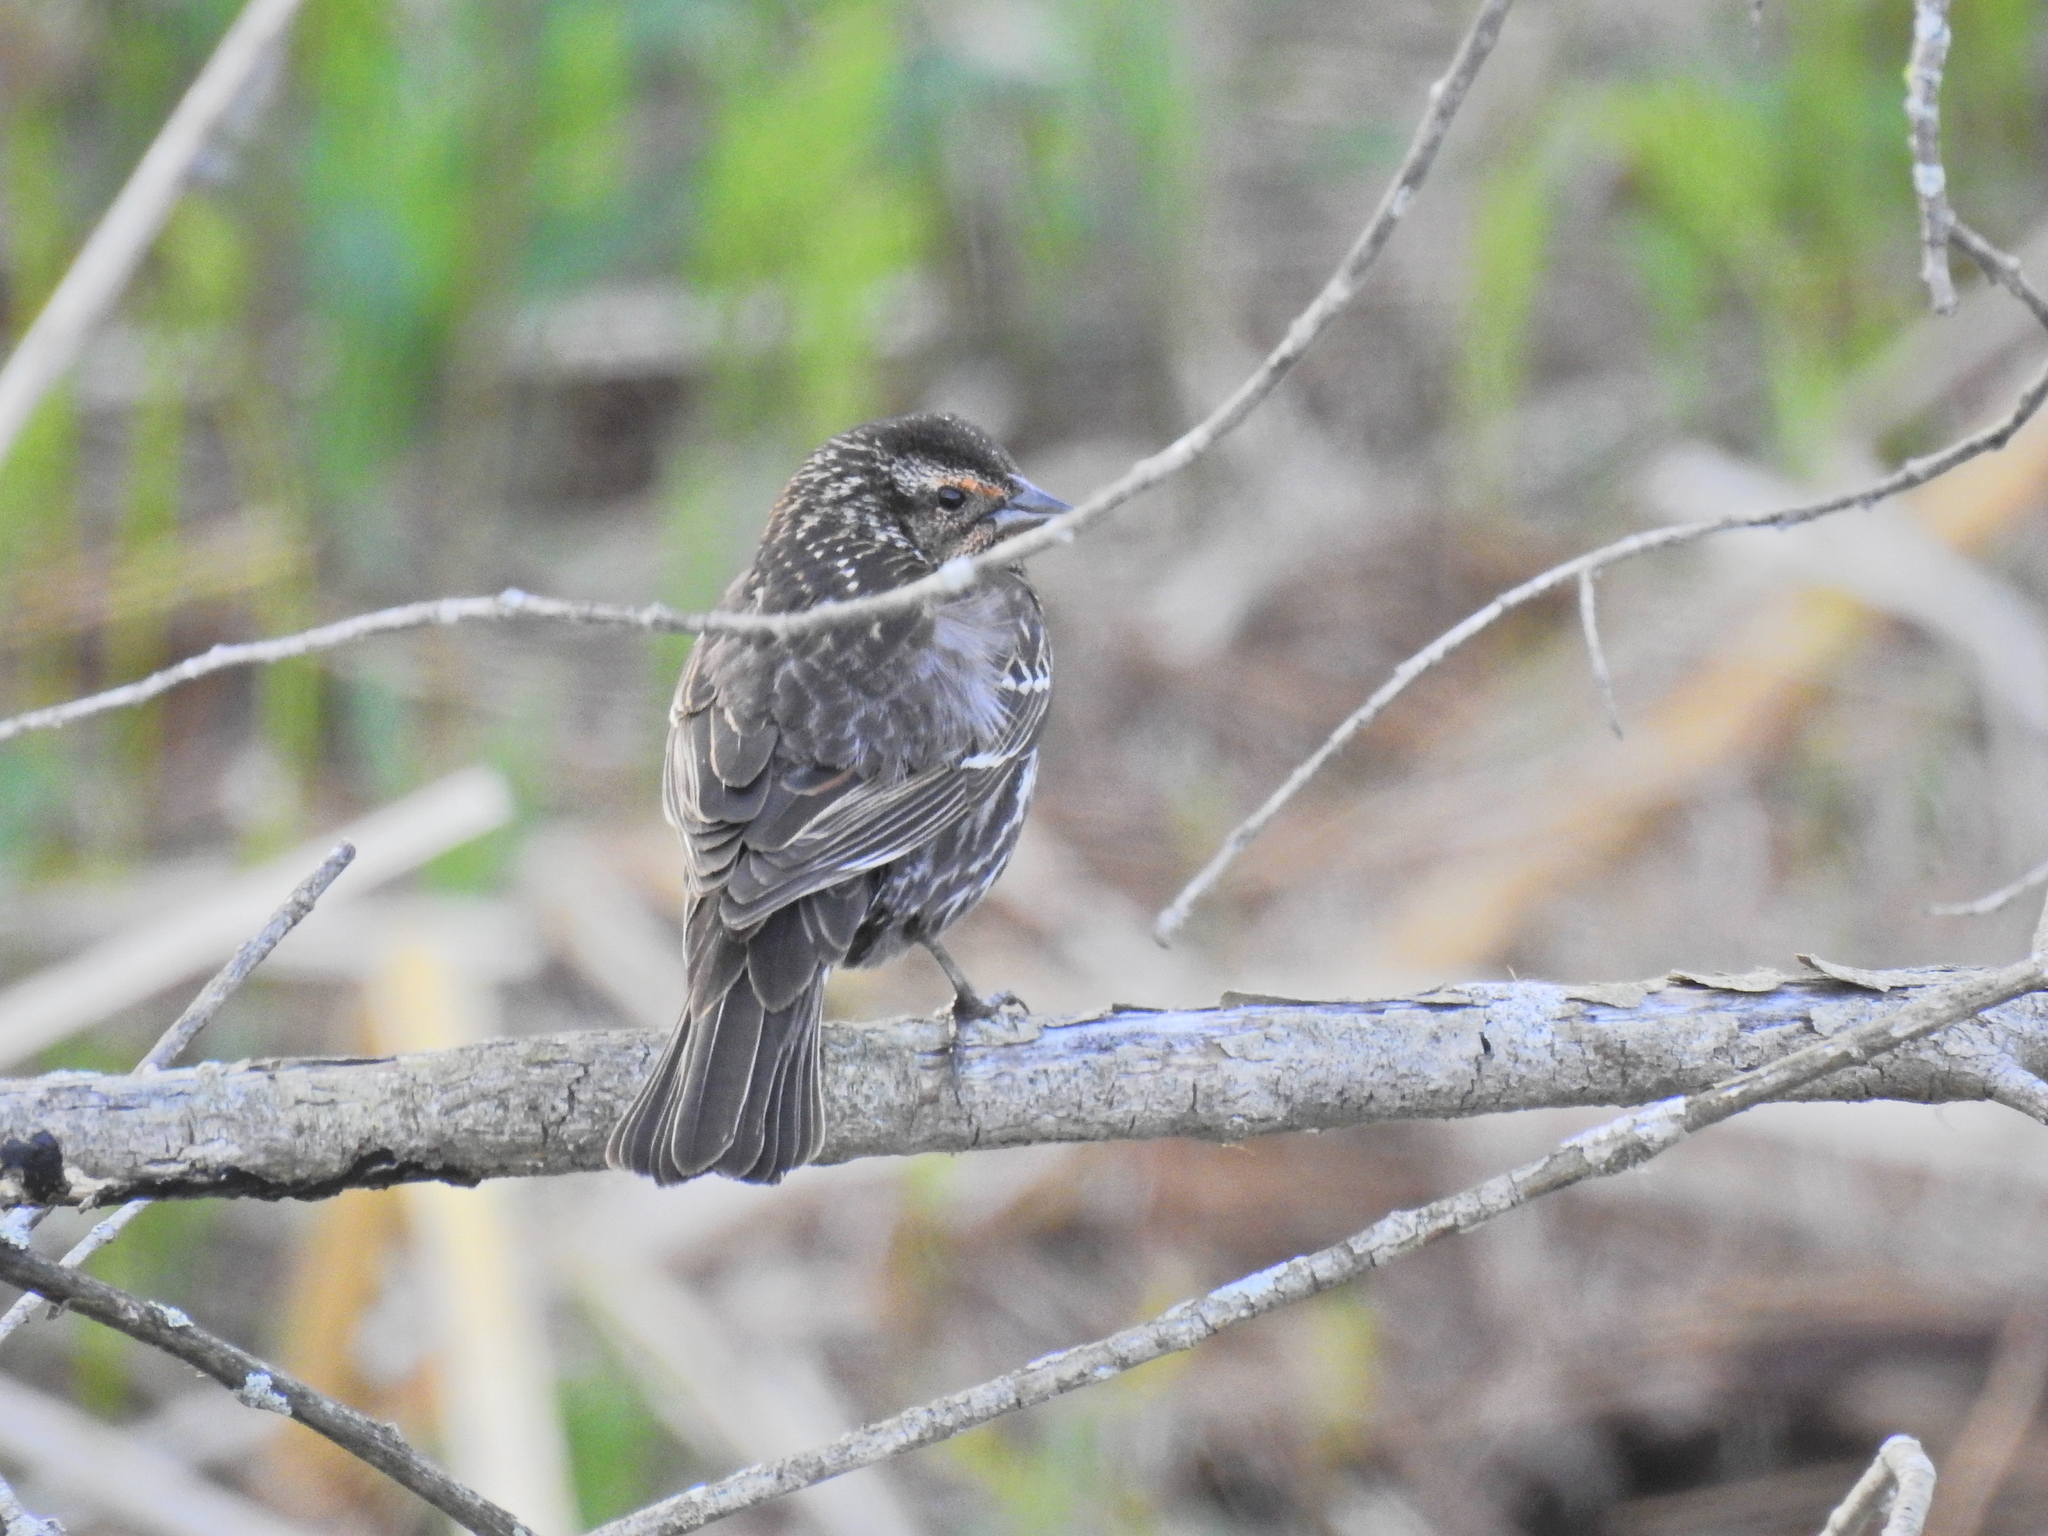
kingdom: Animalia
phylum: Chordata
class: Aves
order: Passeriformes
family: Icteridae
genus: Agelaius
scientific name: Agelaius phoeniceus
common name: Red-winged blackbird
